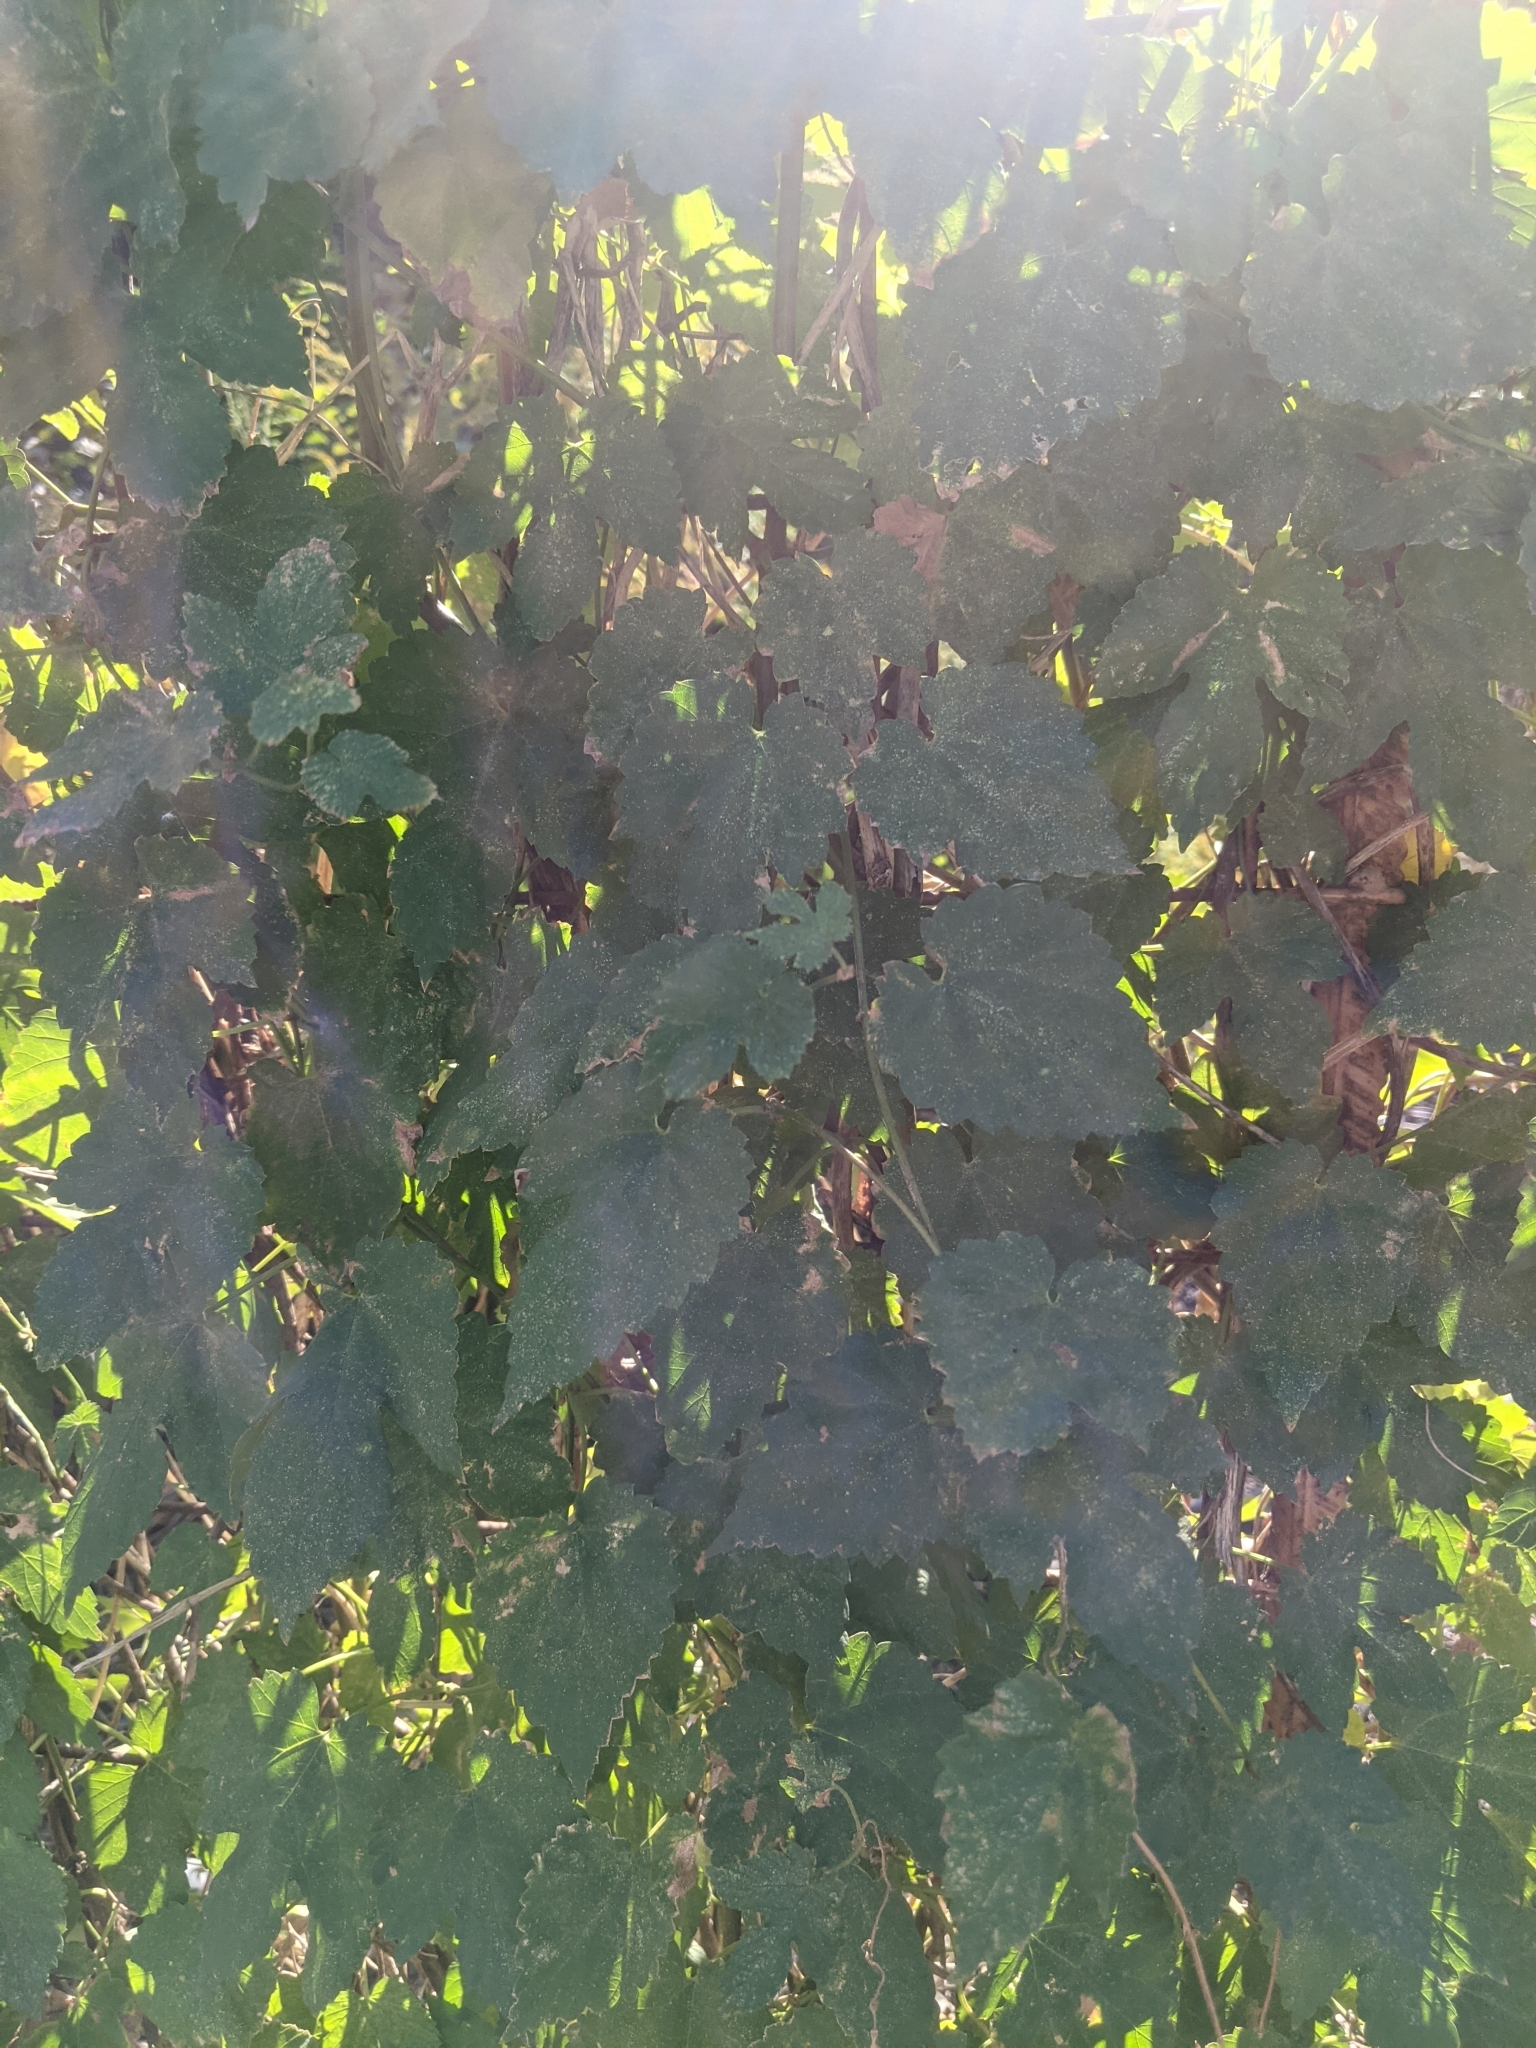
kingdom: Plantae
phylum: Tracheophyta
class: Magnoliopsida
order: Rosales
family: Cannabaceae
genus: Humulus
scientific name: Humulus lupulus
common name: Hop
